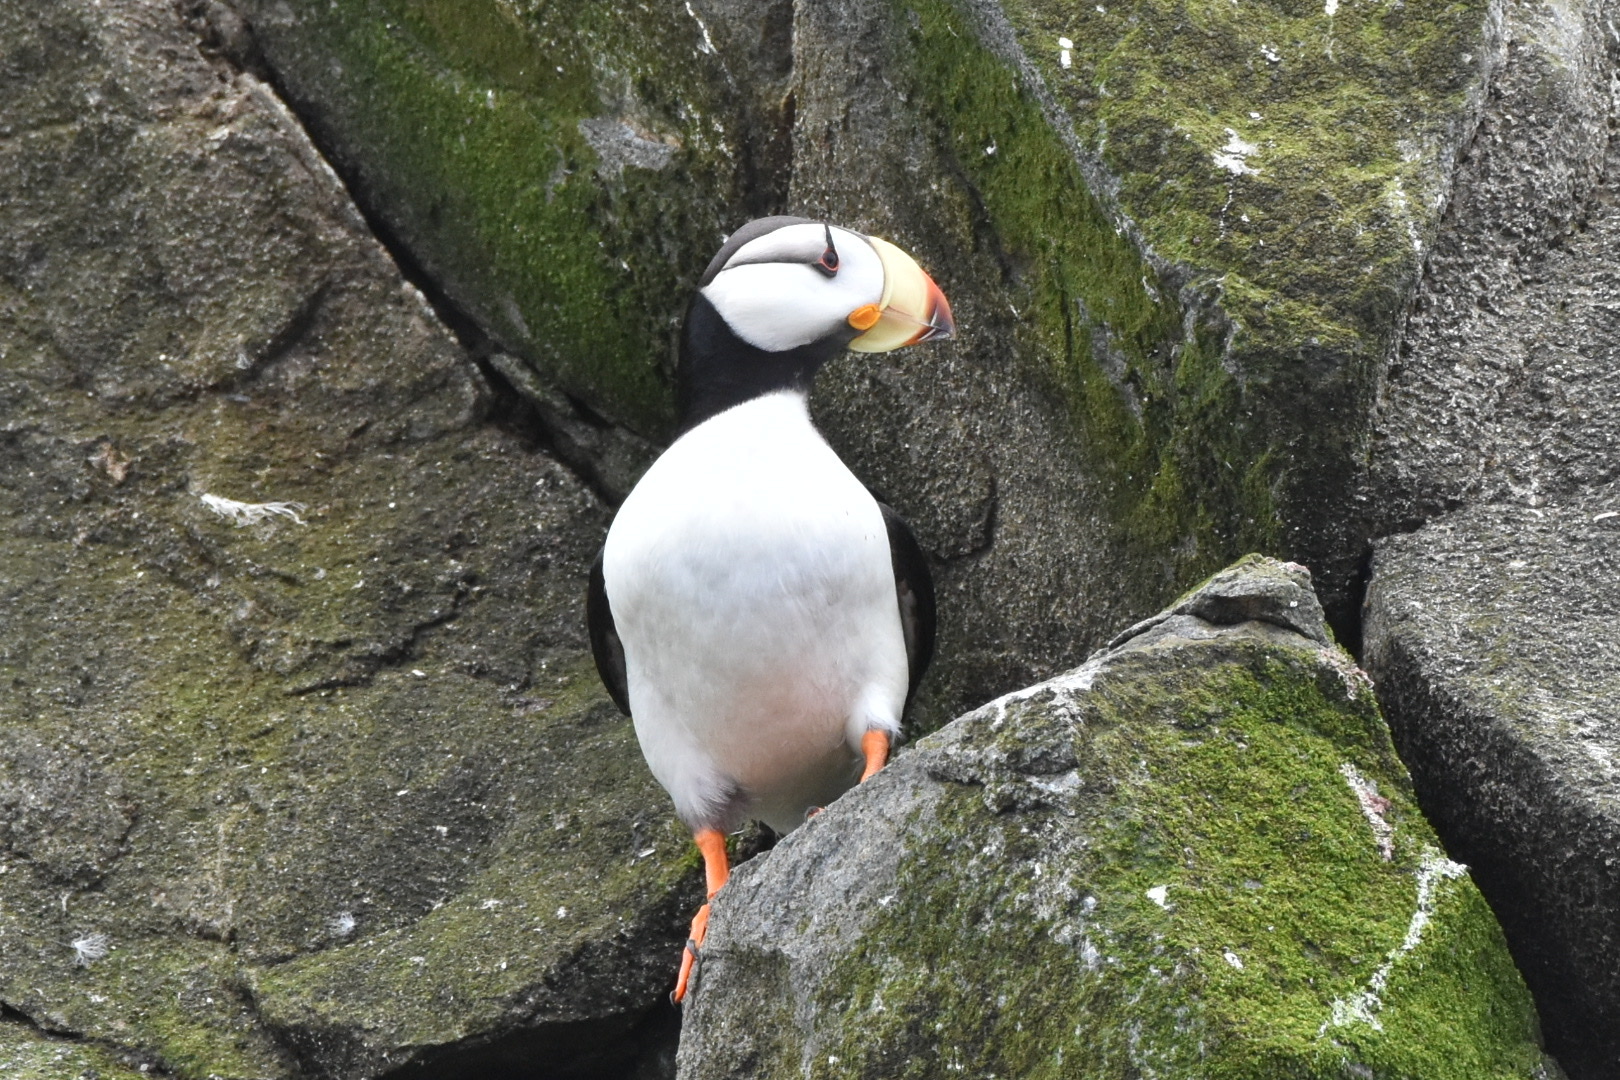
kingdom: Animalia
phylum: Chordata
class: Aves
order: Charadriiformes
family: Alcidae
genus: Fratercula
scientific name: Fratercula corniculata
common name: Horned puffin
